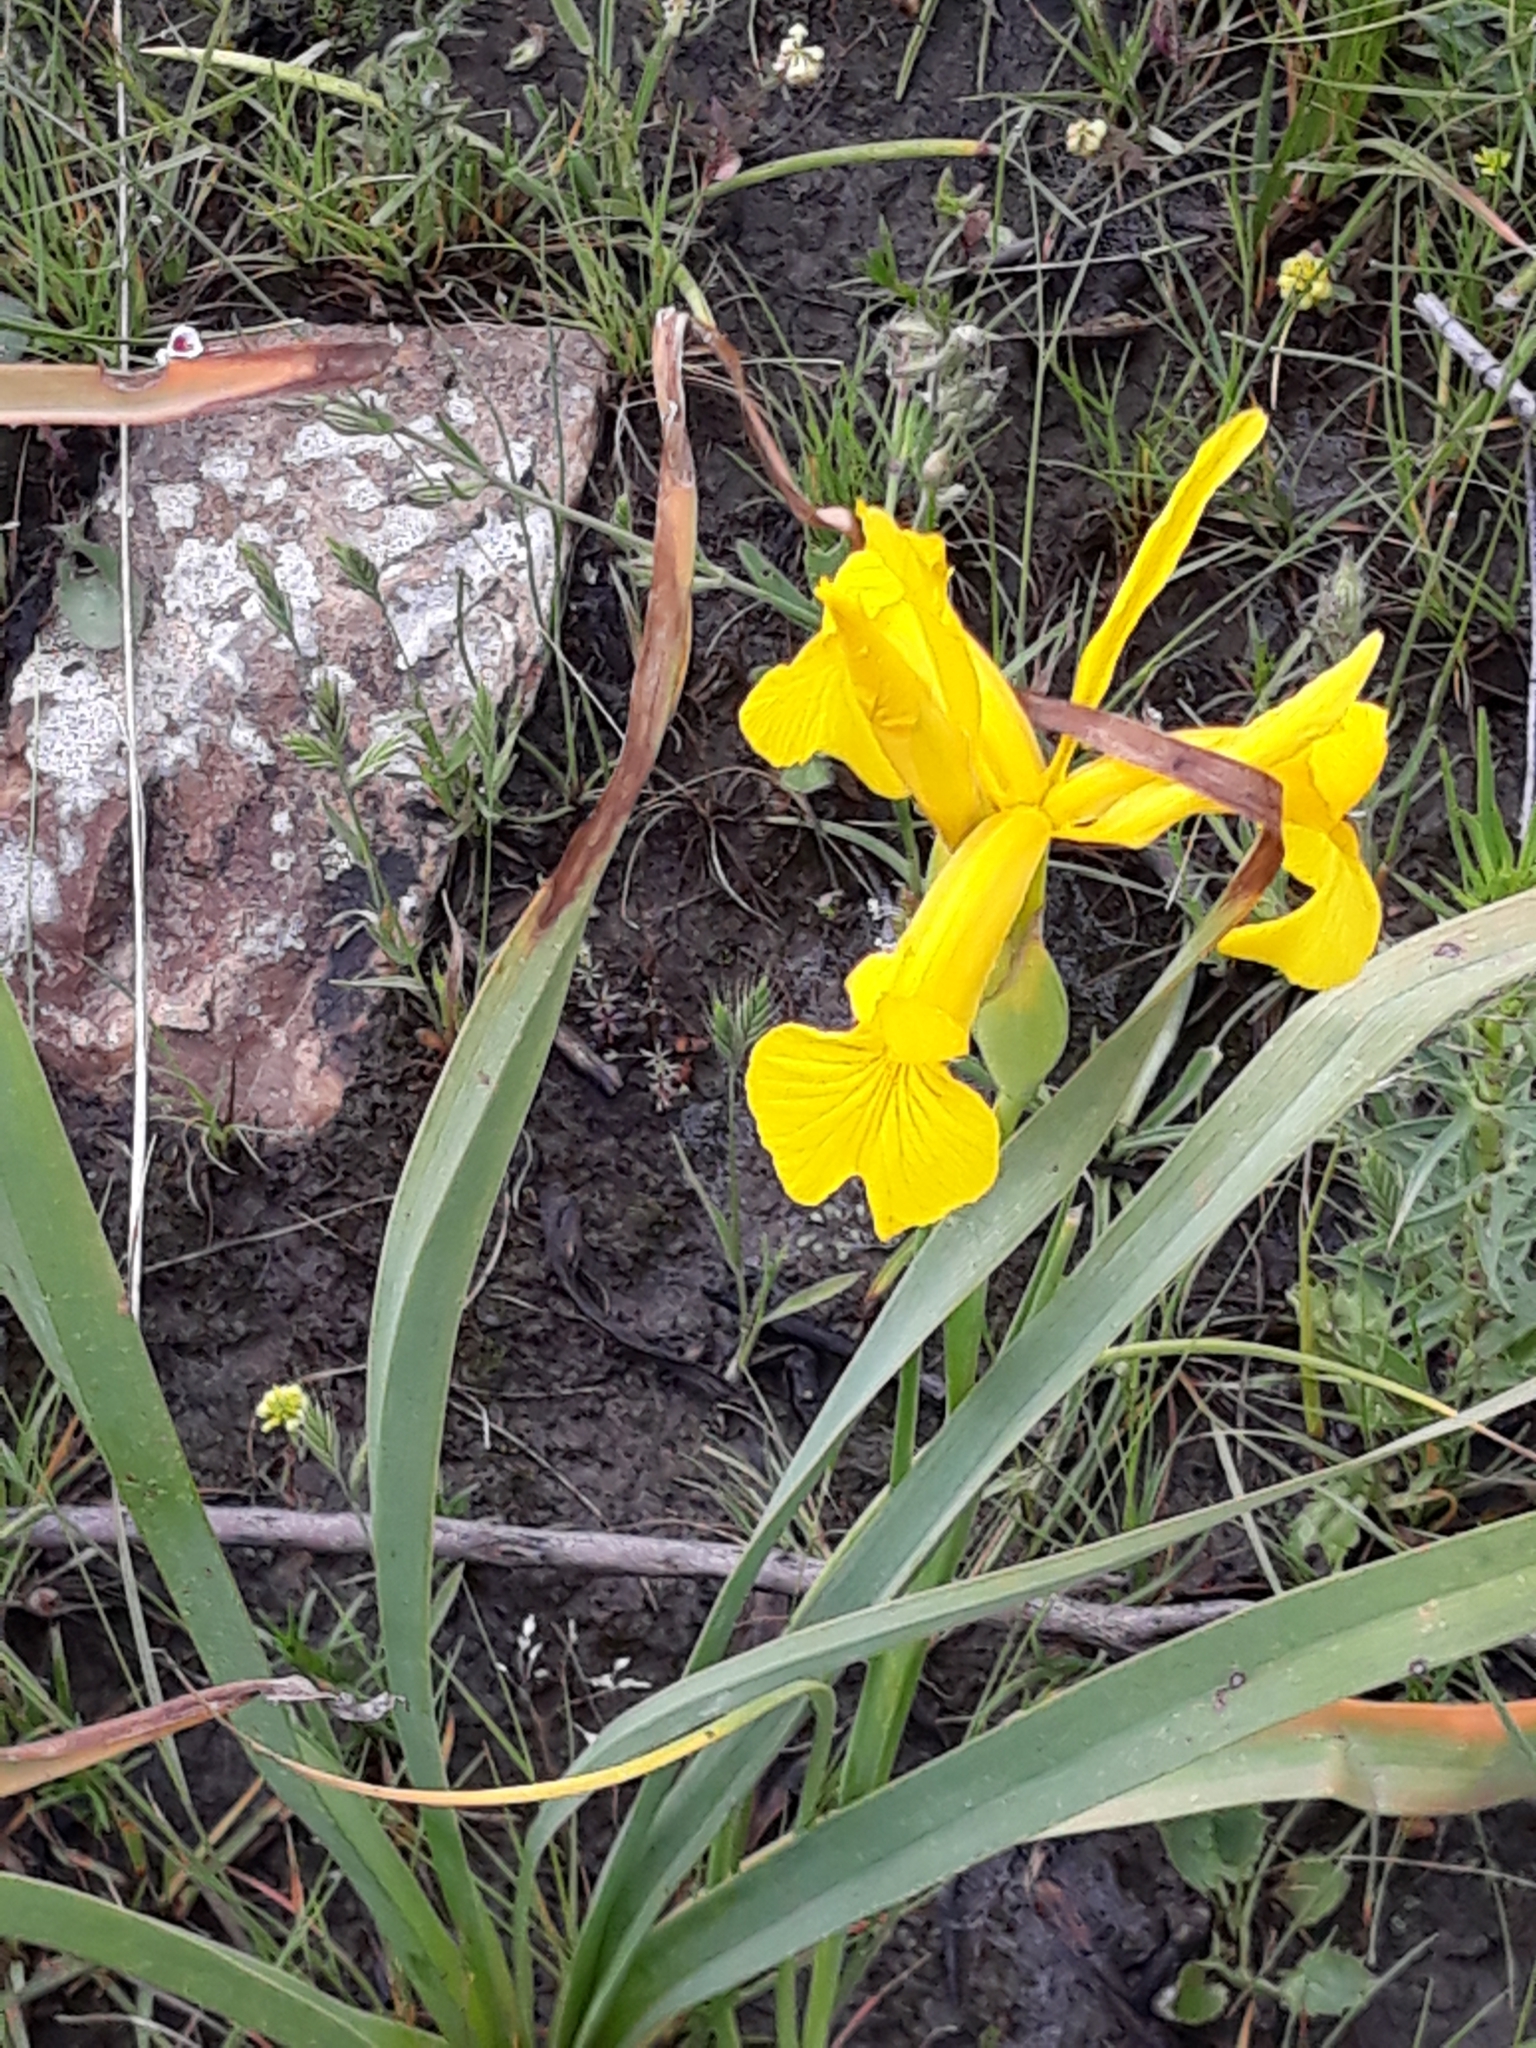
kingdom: Plantae
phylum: Tracheophyta
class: Liliopsida
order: Asparagales
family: Iridaceae
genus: Iris
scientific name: Iris juncea
